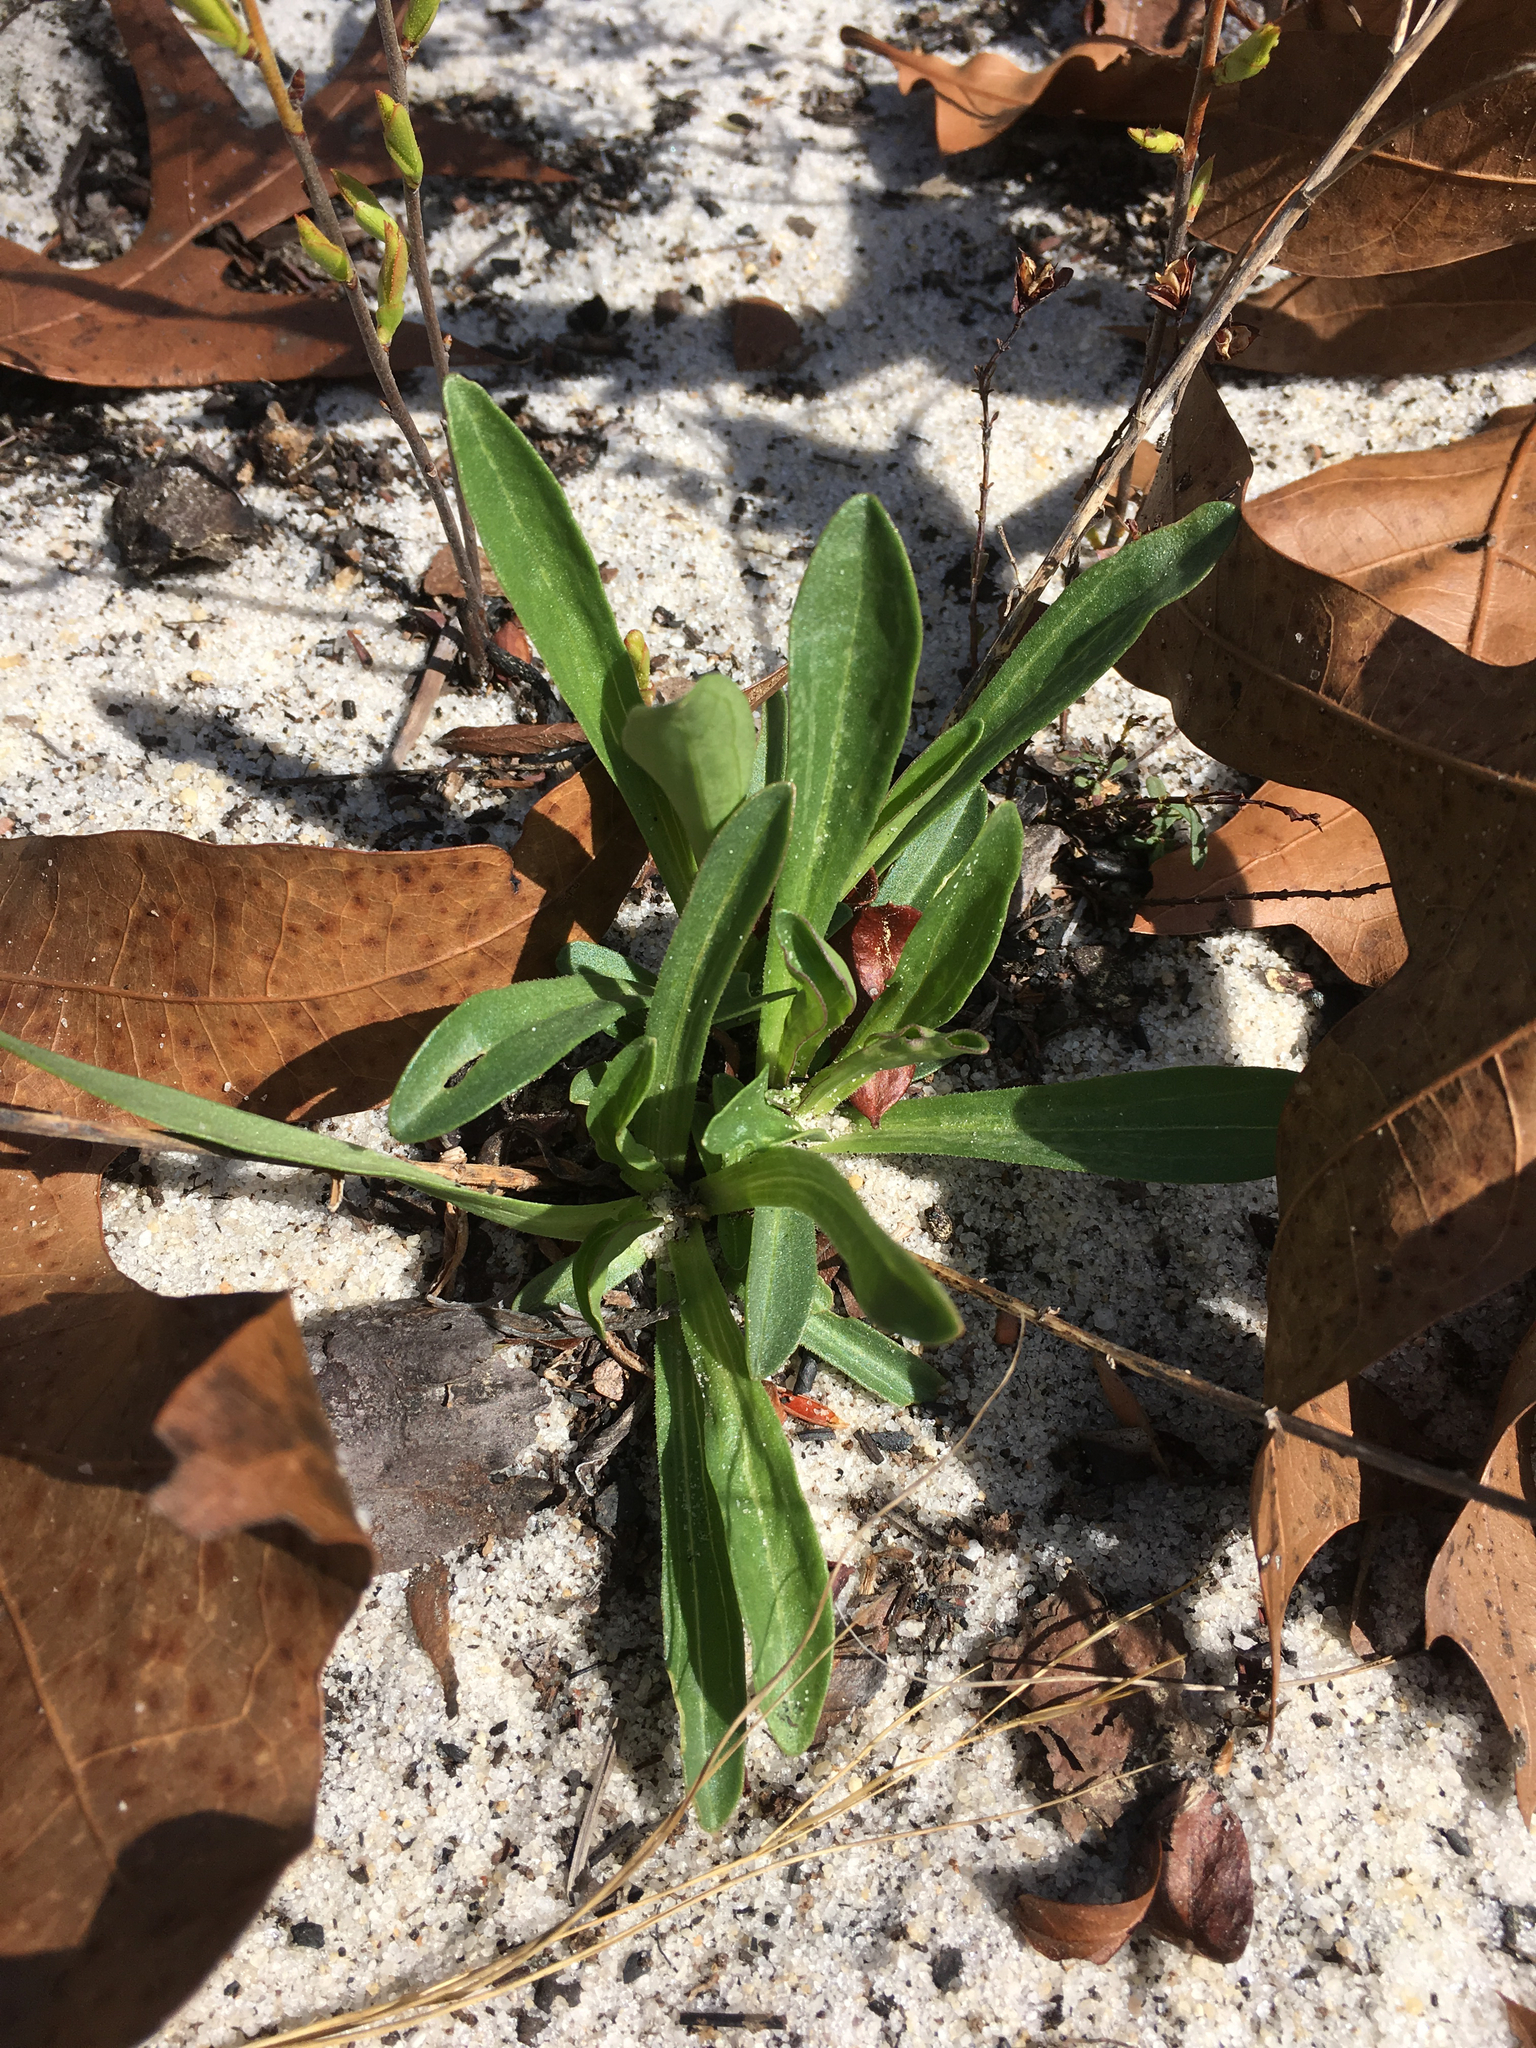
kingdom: Plantae
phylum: Tracheophyta
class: Magnoliopsida
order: Asterales
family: Asteraceae
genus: Carphephorus
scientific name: Carphephorus bellidifolius
